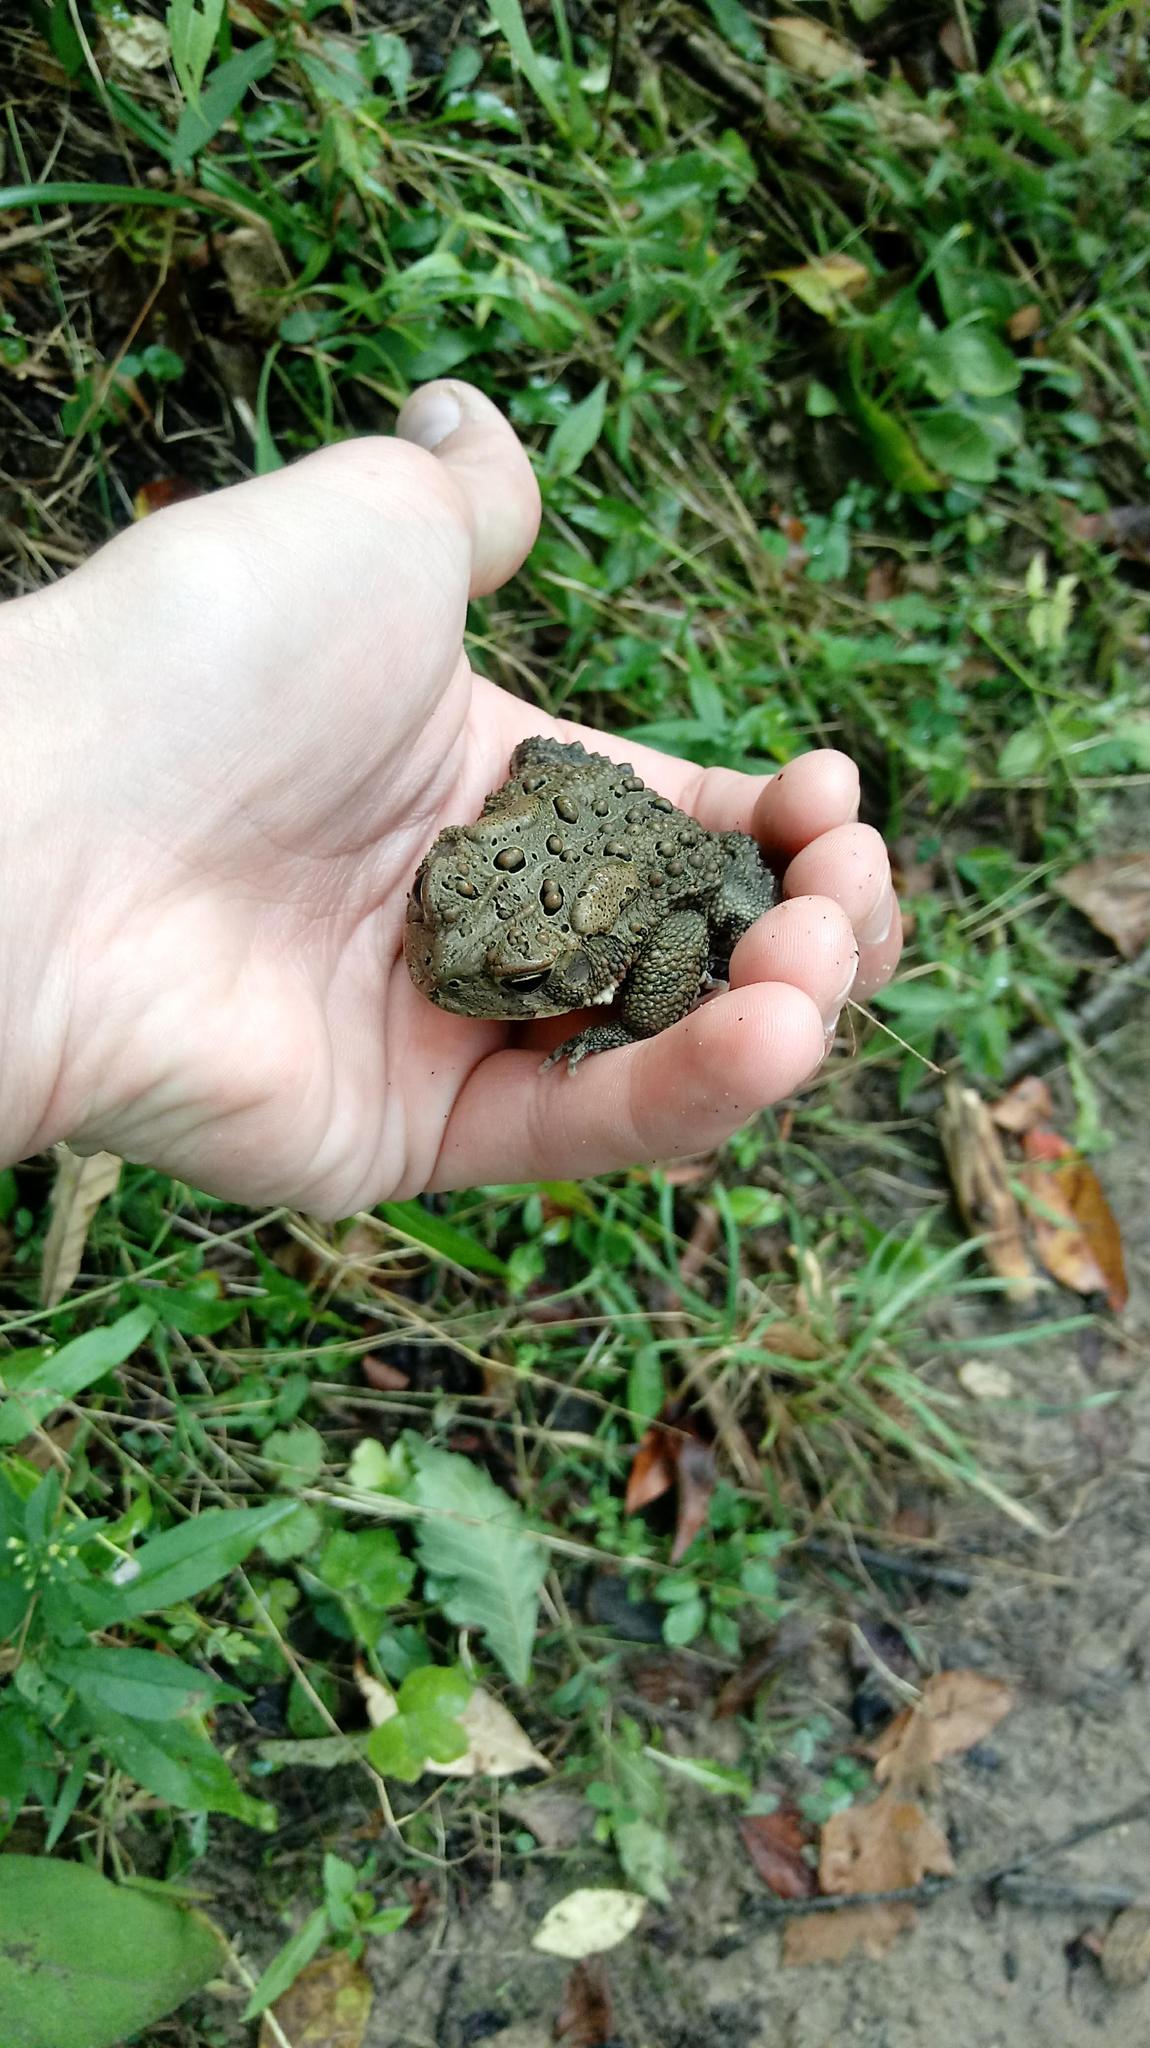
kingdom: Animalia
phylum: Chordata
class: Amphibia
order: Anura
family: Bufonidae
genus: Anaxyrus
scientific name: Anaxyrus americanus
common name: American toad
